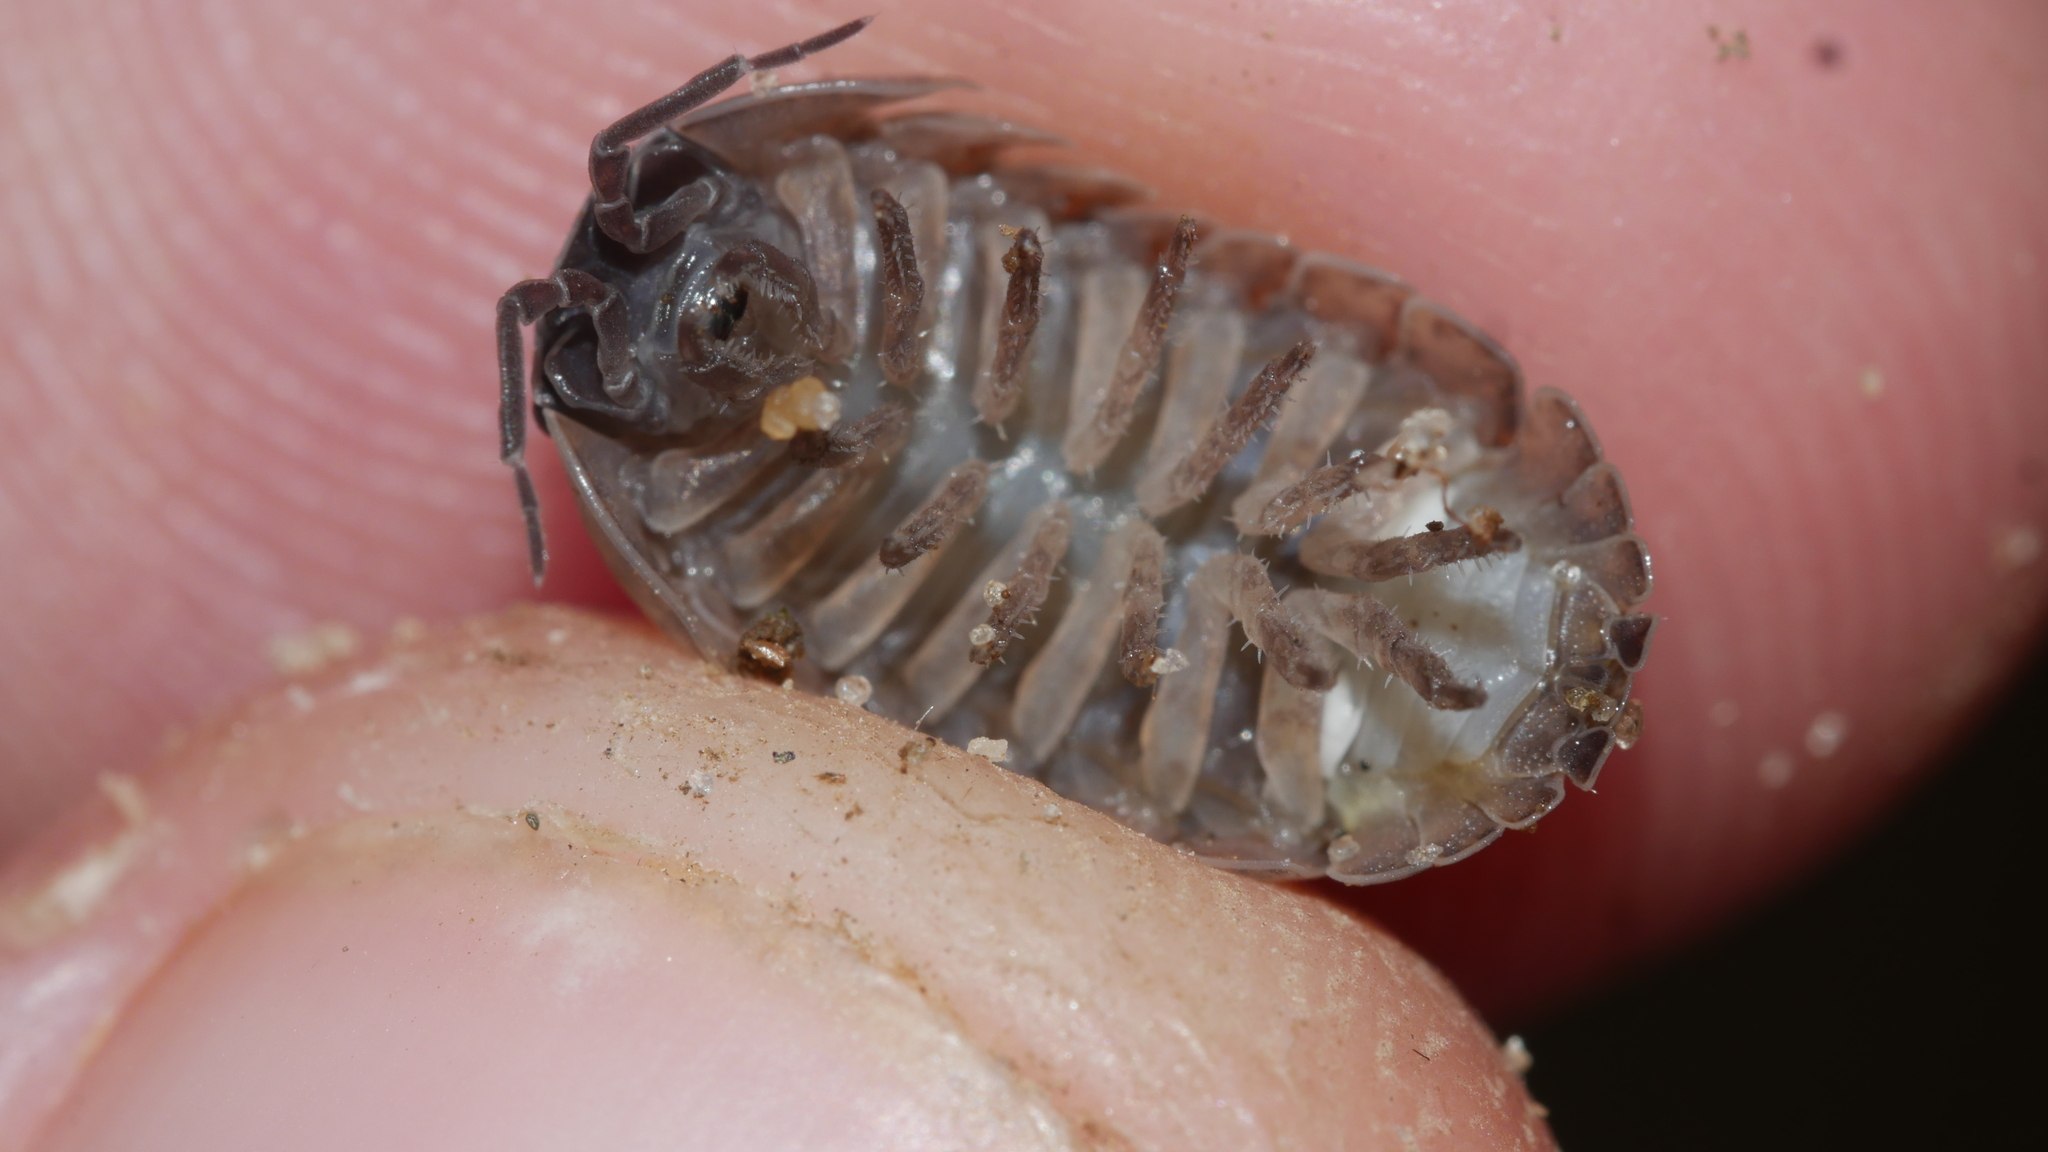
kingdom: Animalia
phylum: Arthropoda
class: Malacostraca
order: Isopoda
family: Armadillidiidae
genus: Armadillidium
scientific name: Armadillidium vulgare
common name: Common pill woodlouse
